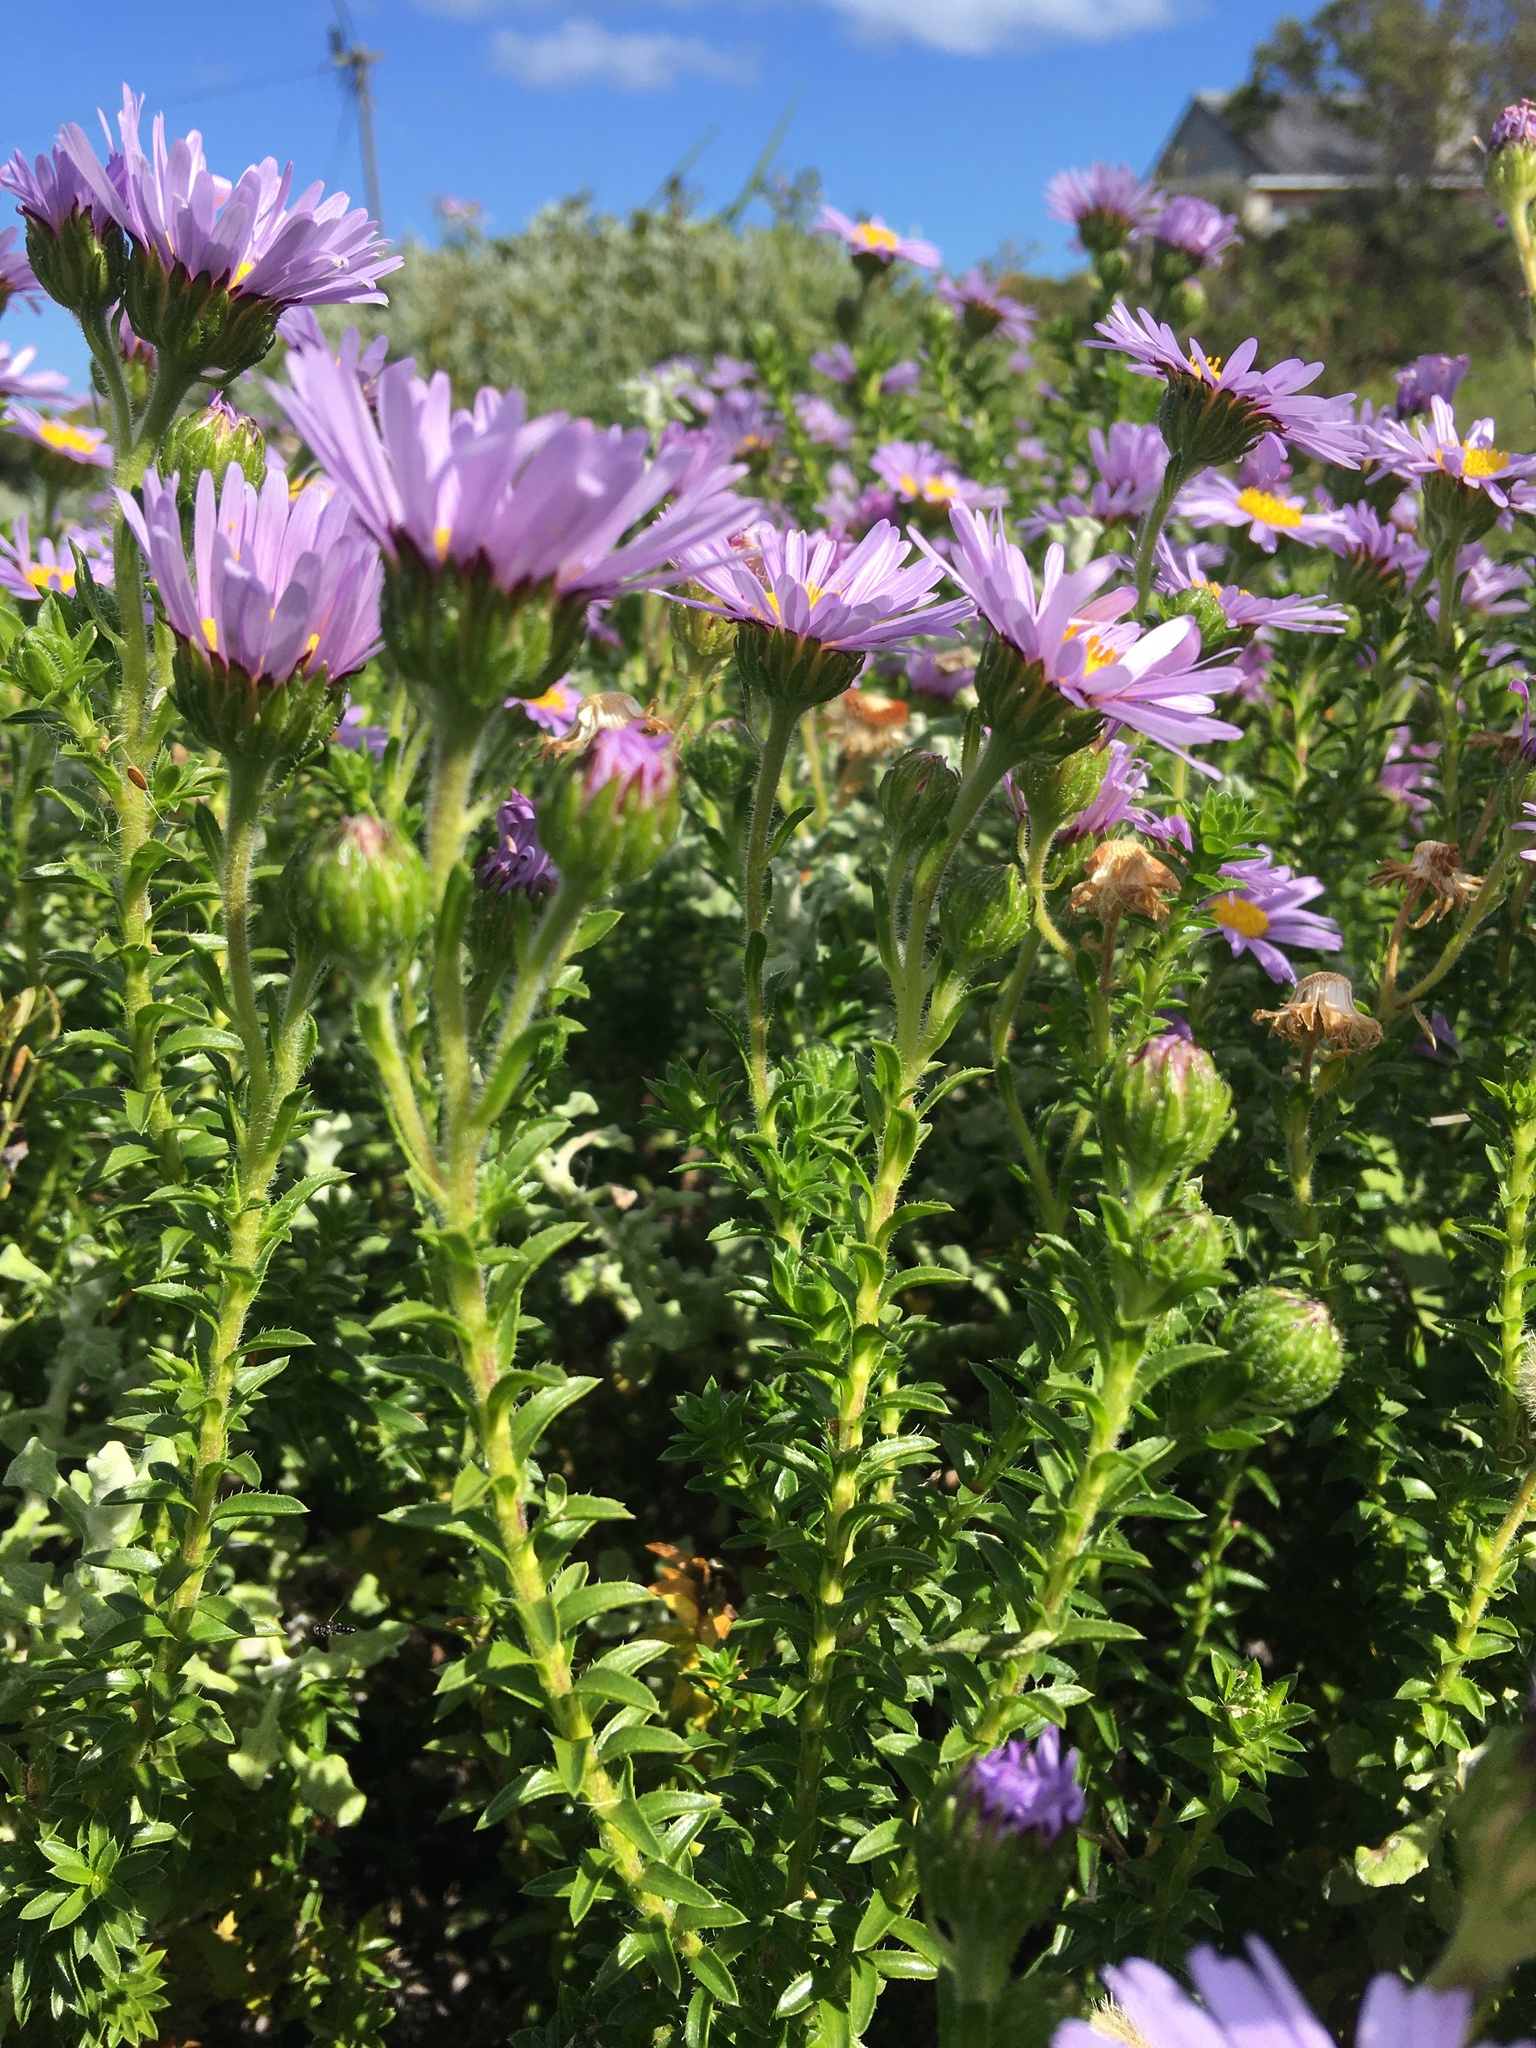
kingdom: Plantae
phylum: Tracheophyta
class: Magnoliopsida
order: Asterales
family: Asteraceae
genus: Felicia
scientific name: Felicia echinata
